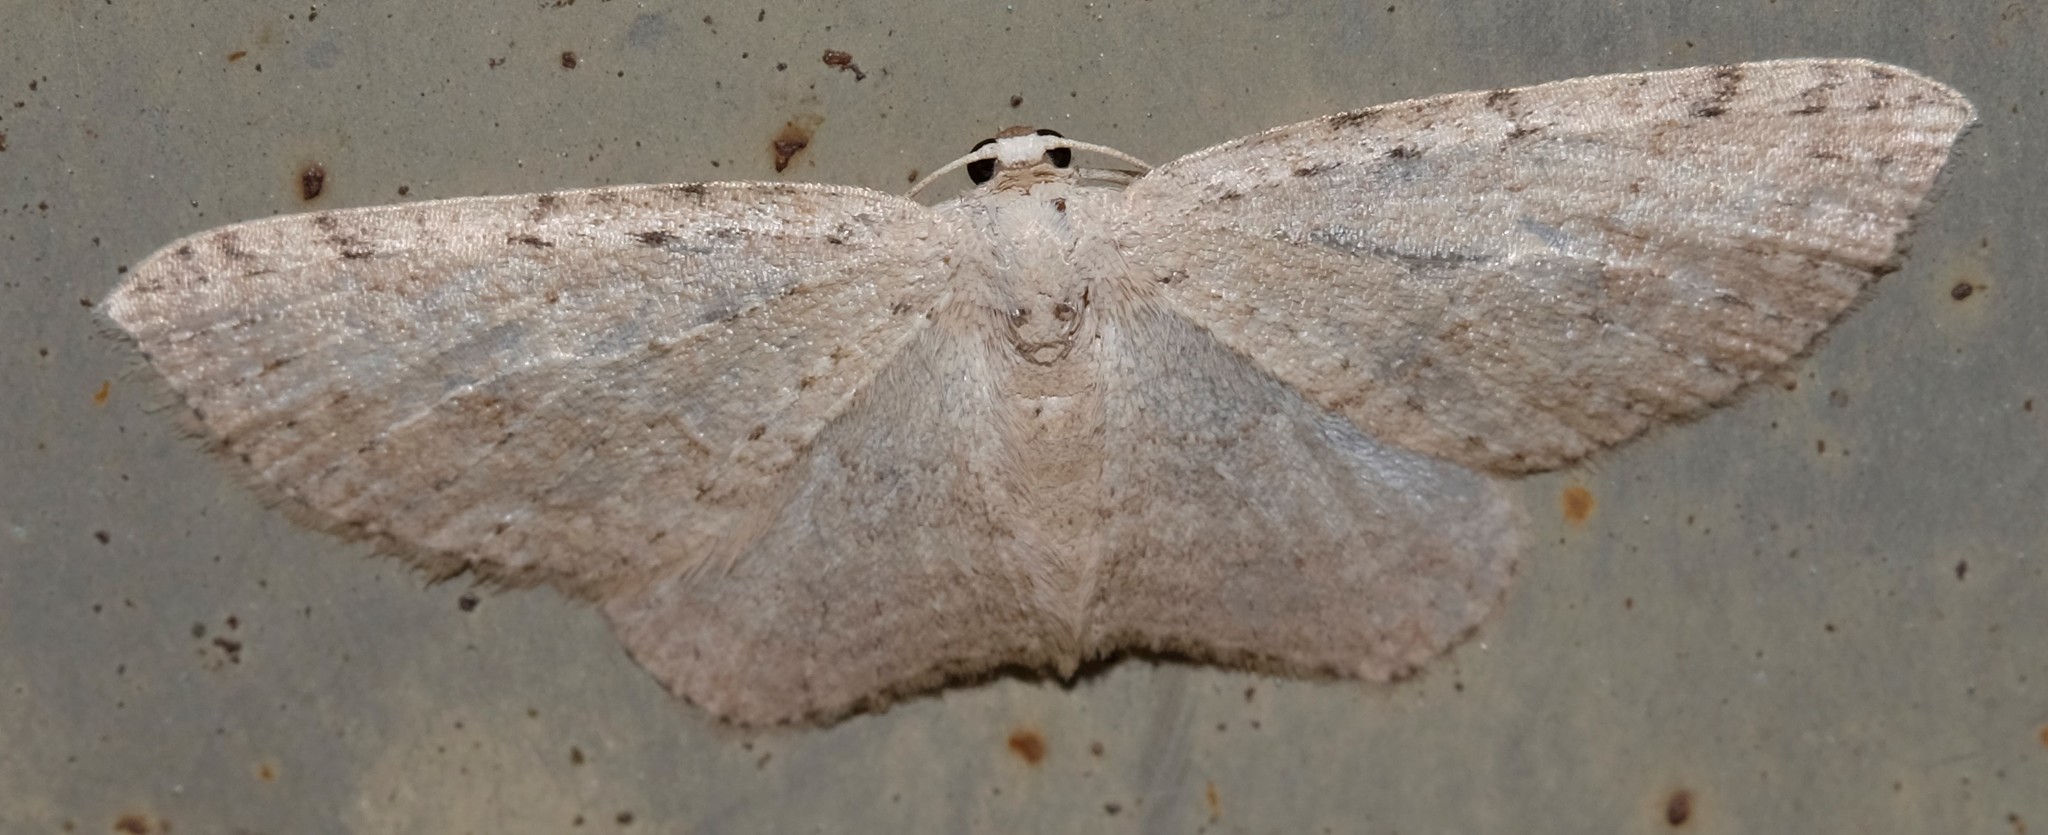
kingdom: Animalia
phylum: Arthropoda
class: Insecta
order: Lepidoptera
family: Geometridae
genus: Poecilasthena
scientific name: Poecilasthena scoliota
